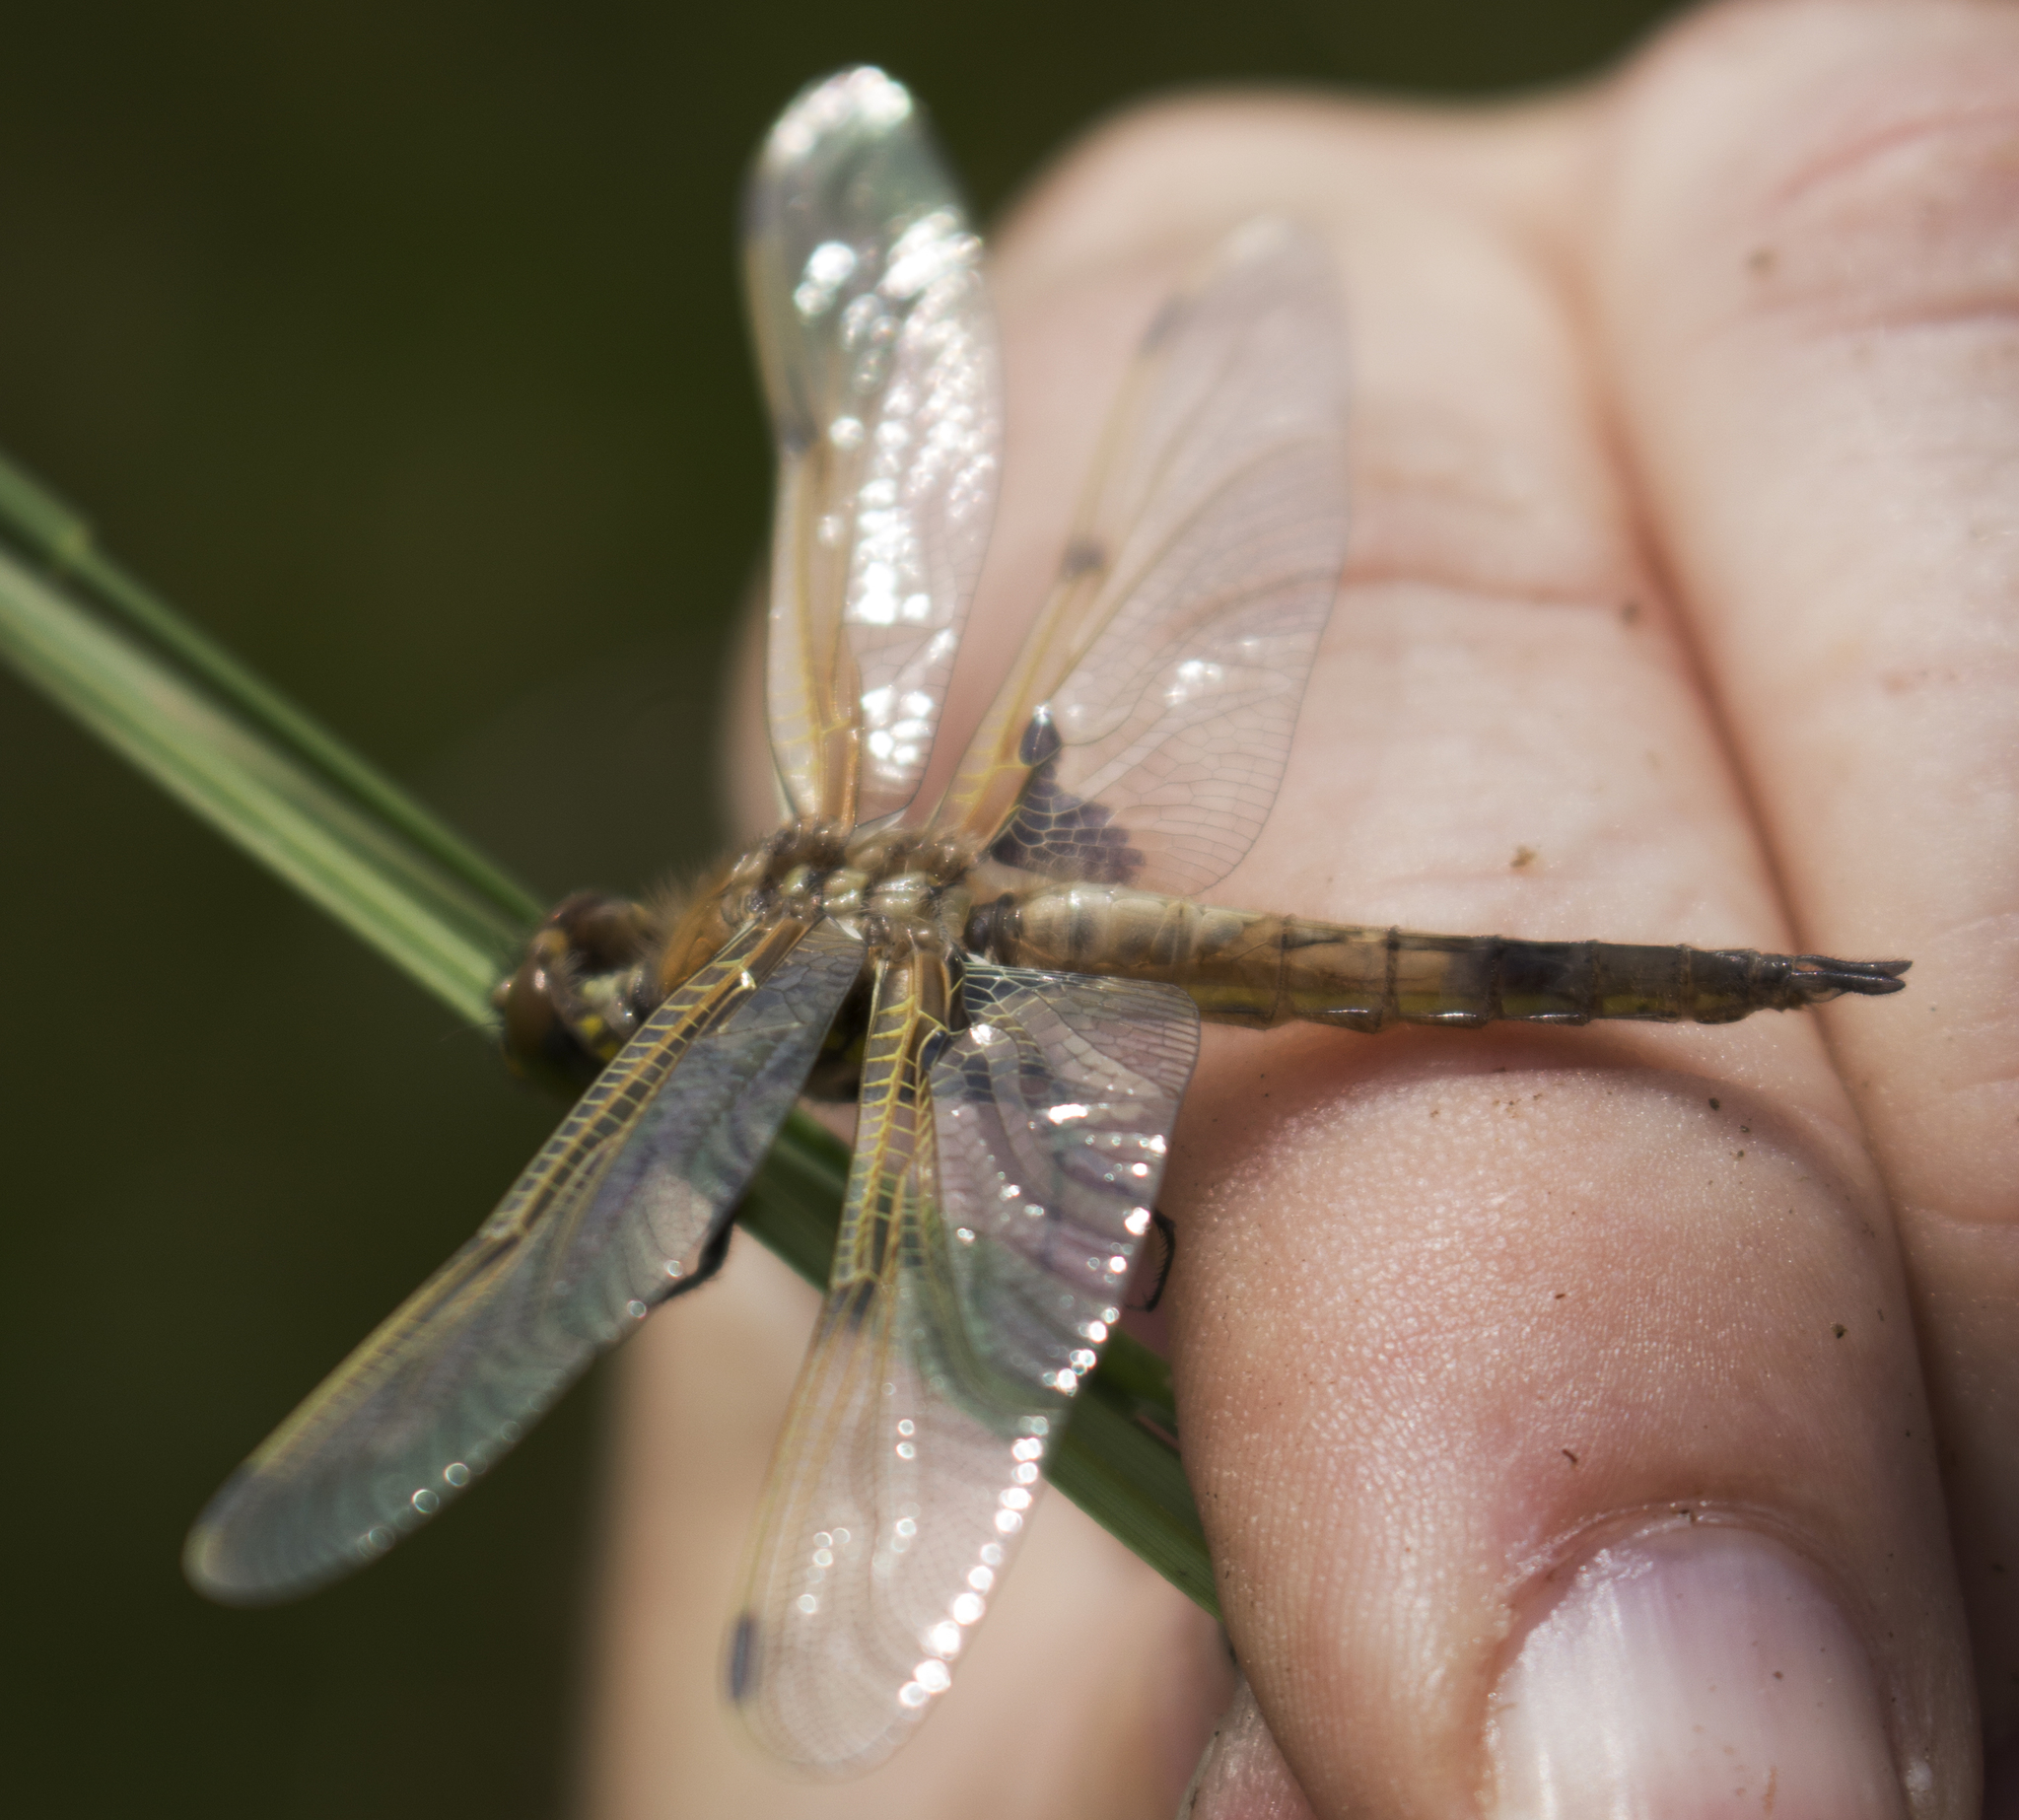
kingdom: Animalia
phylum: Arthropoda
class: Insecta
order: Odonata
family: Libellulidae
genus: Libellula
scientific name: Libellula quadrimaculata
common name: Four-spotted chaser
